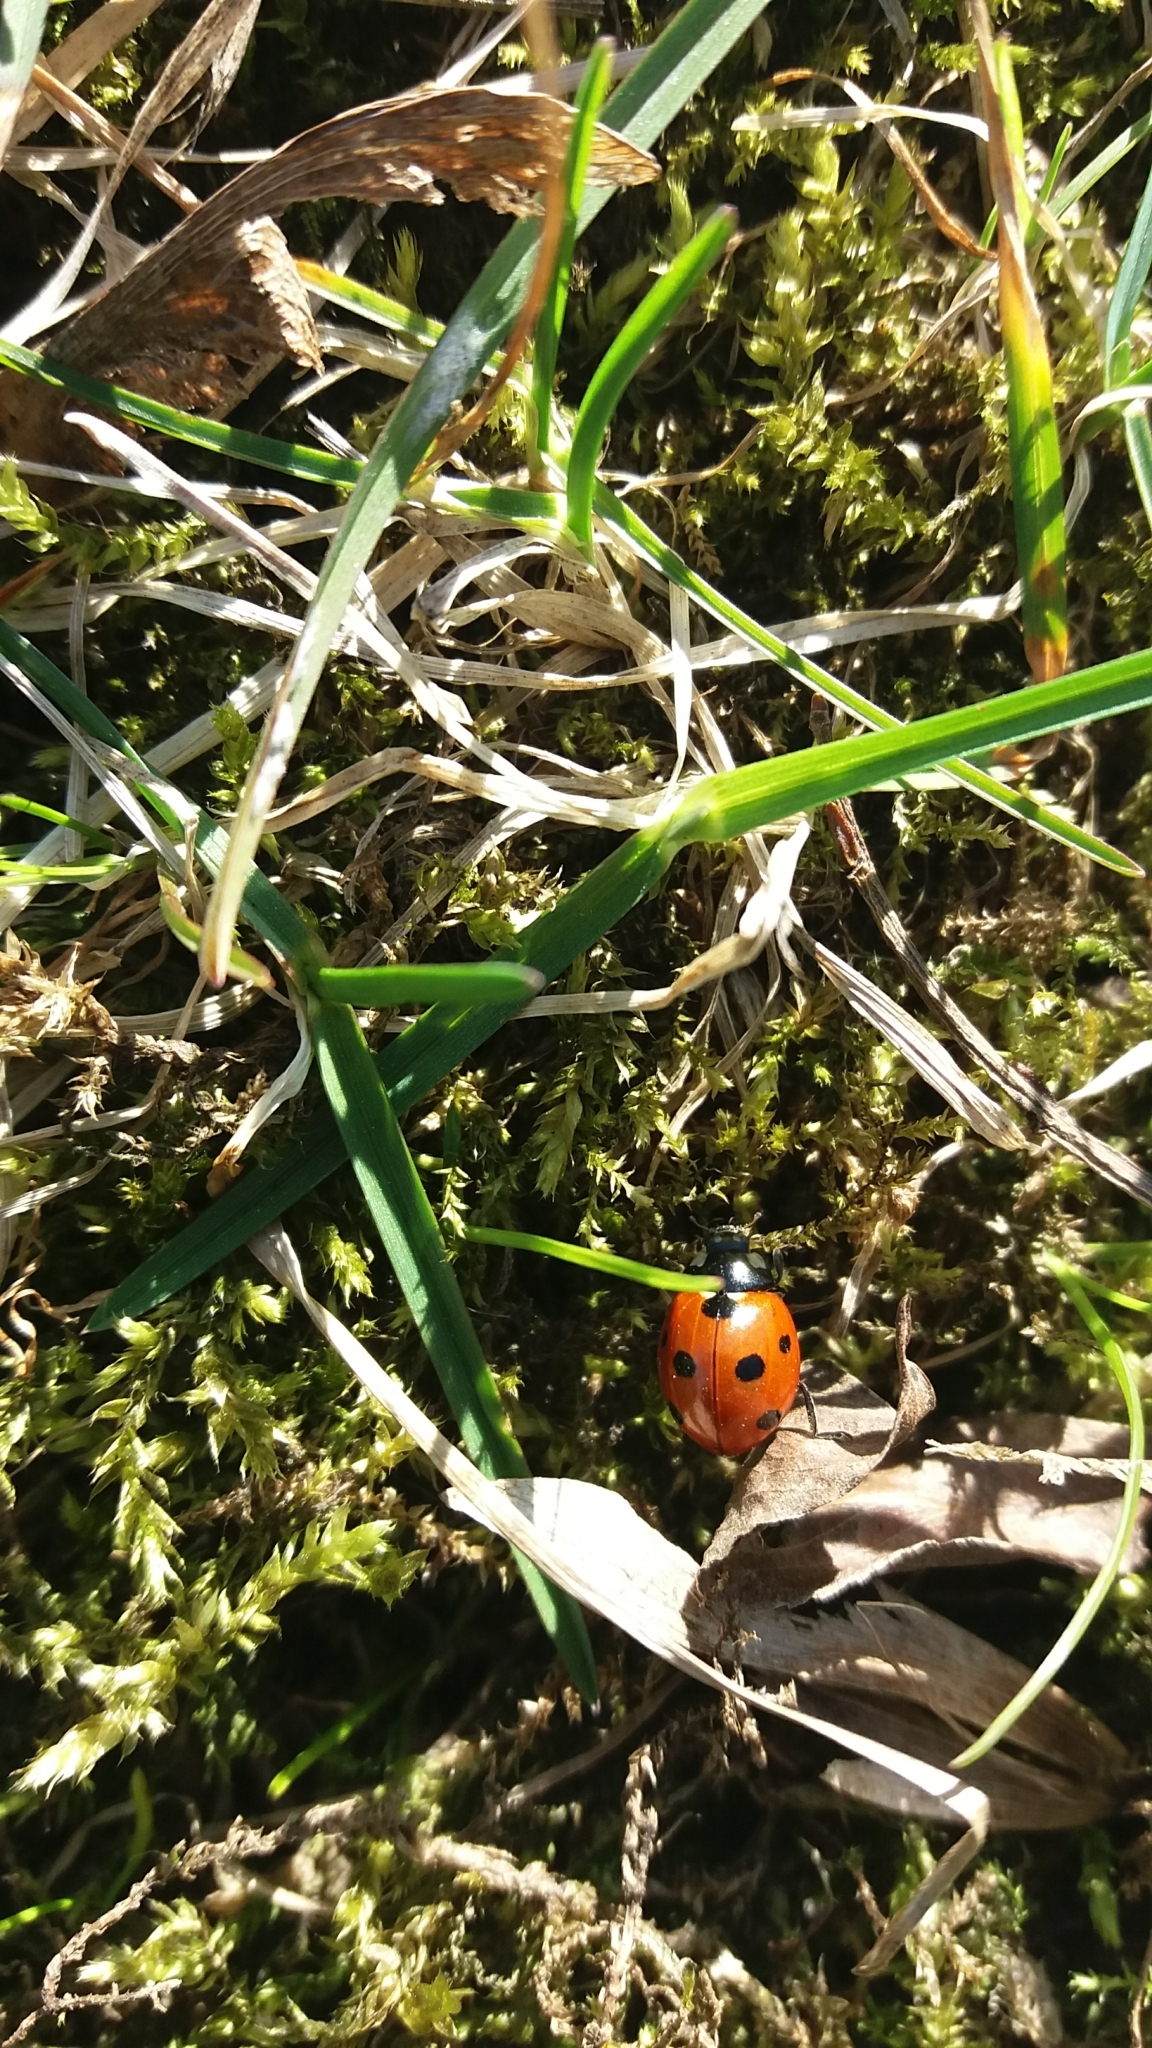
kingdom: Animalia
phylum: Arthropoda
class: Insecta
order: Coleoptera
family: Coccinellidae
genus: Coccinella
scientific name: Coccinella septempunctata
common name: Sevenspotted lady beetle
